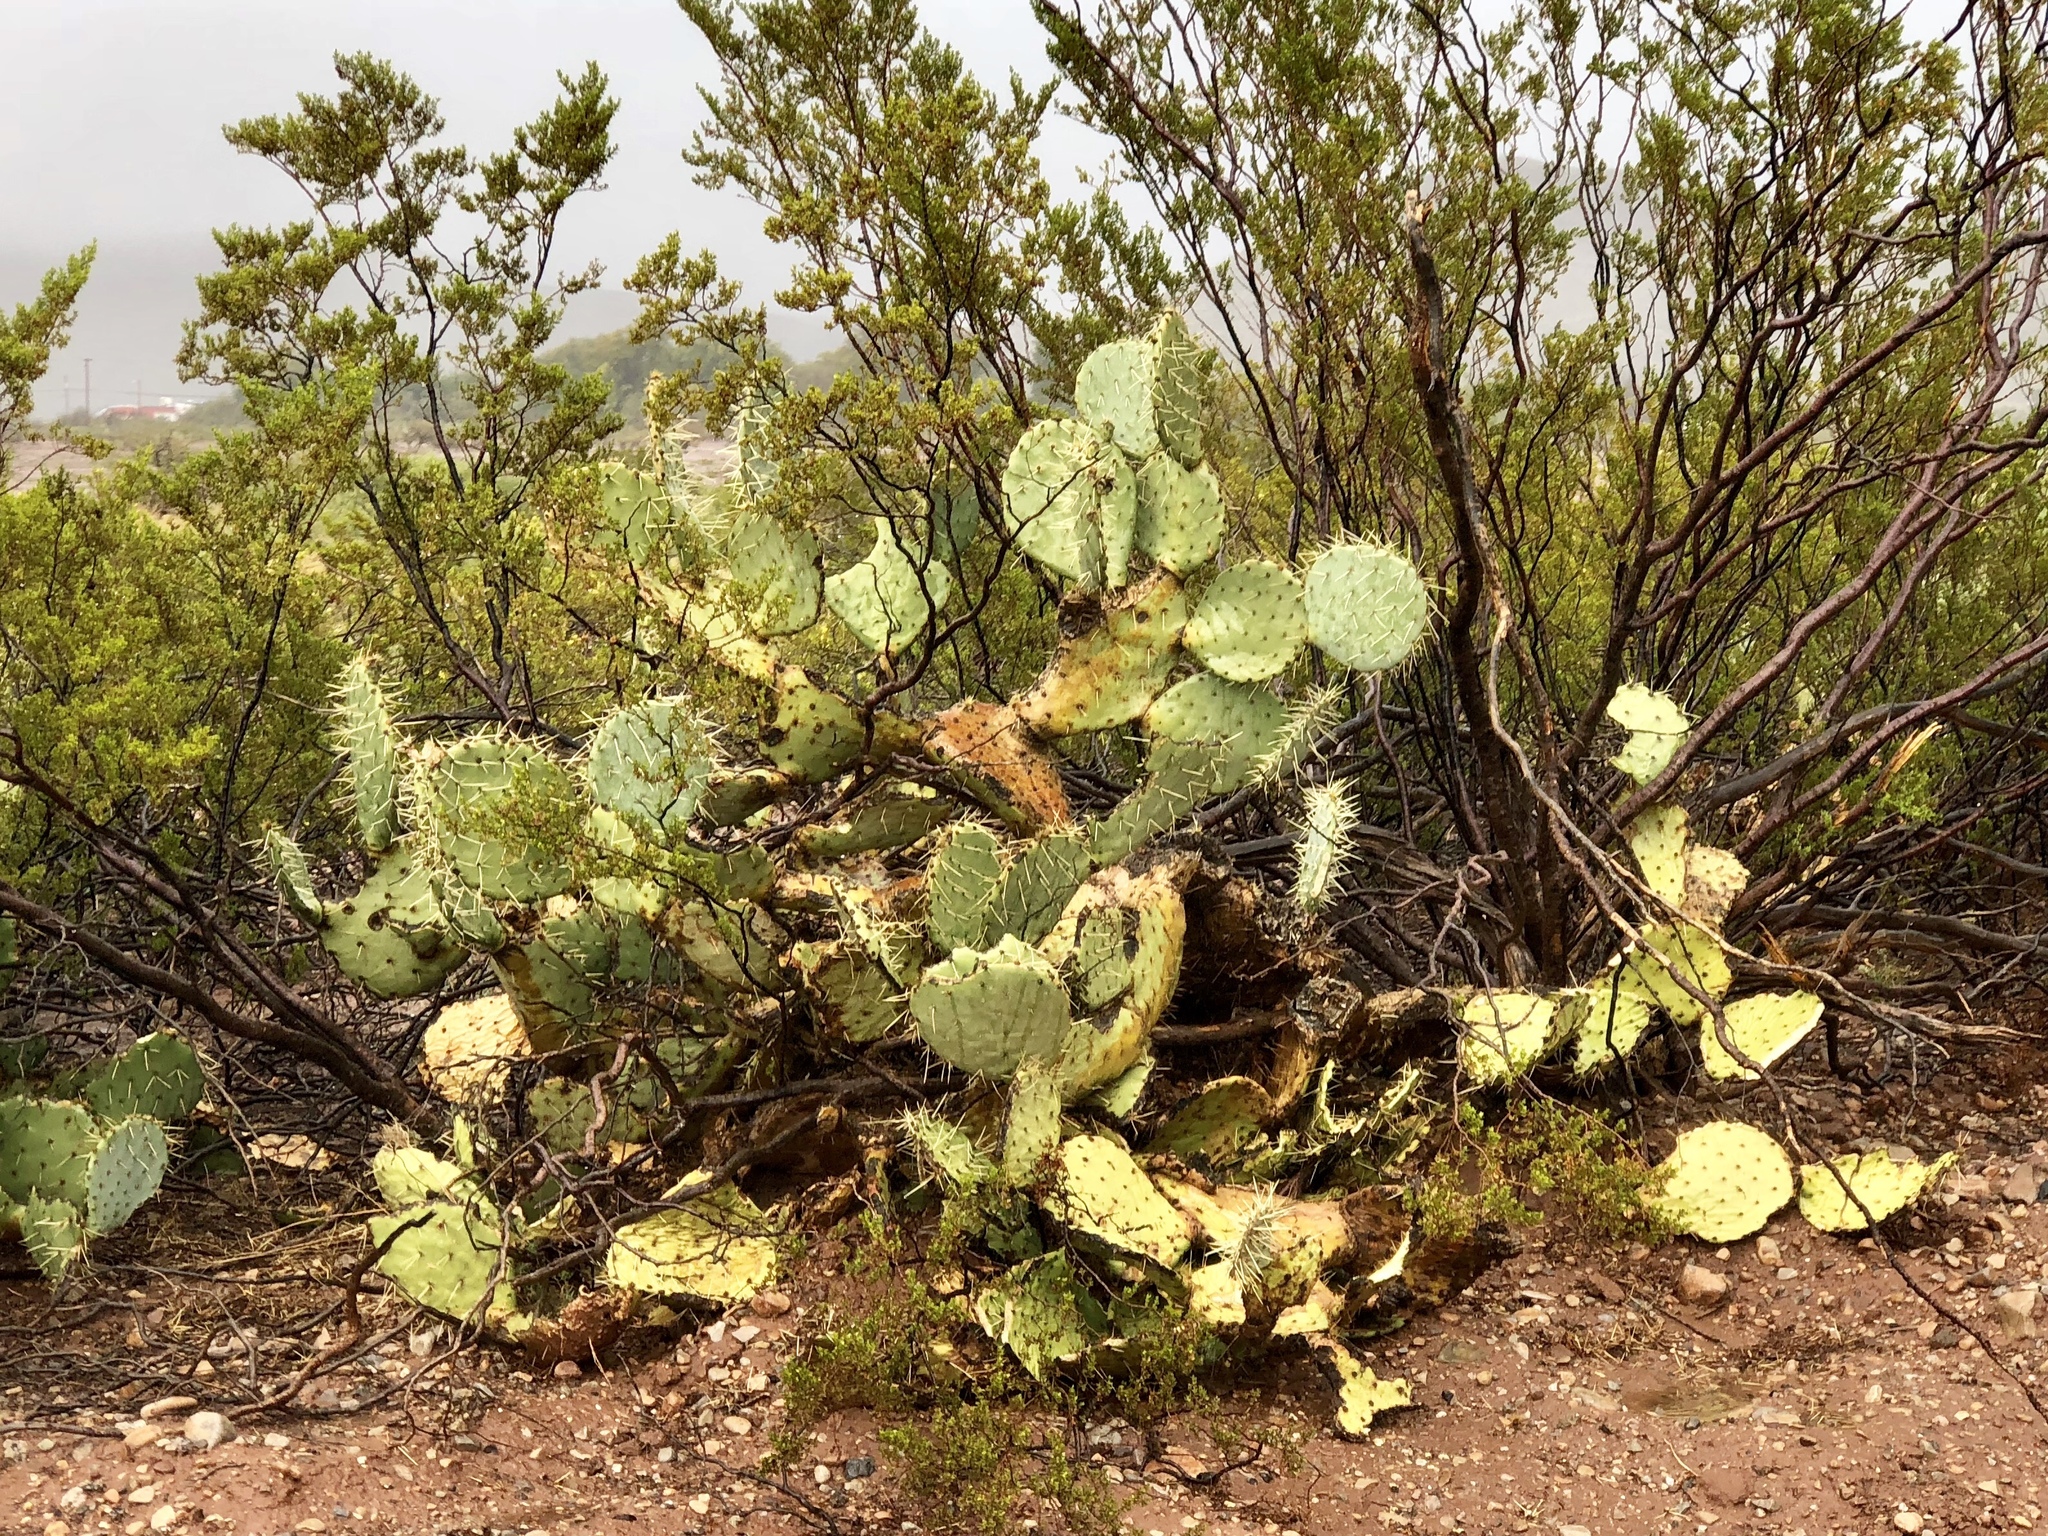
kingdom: Plantae
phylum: Tracheophyta
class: Magnoliopsida
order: Caryophyllales
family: Cactaceae
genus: Opuntia
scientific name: Opuntia engelmannii
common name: Cactus-apple
